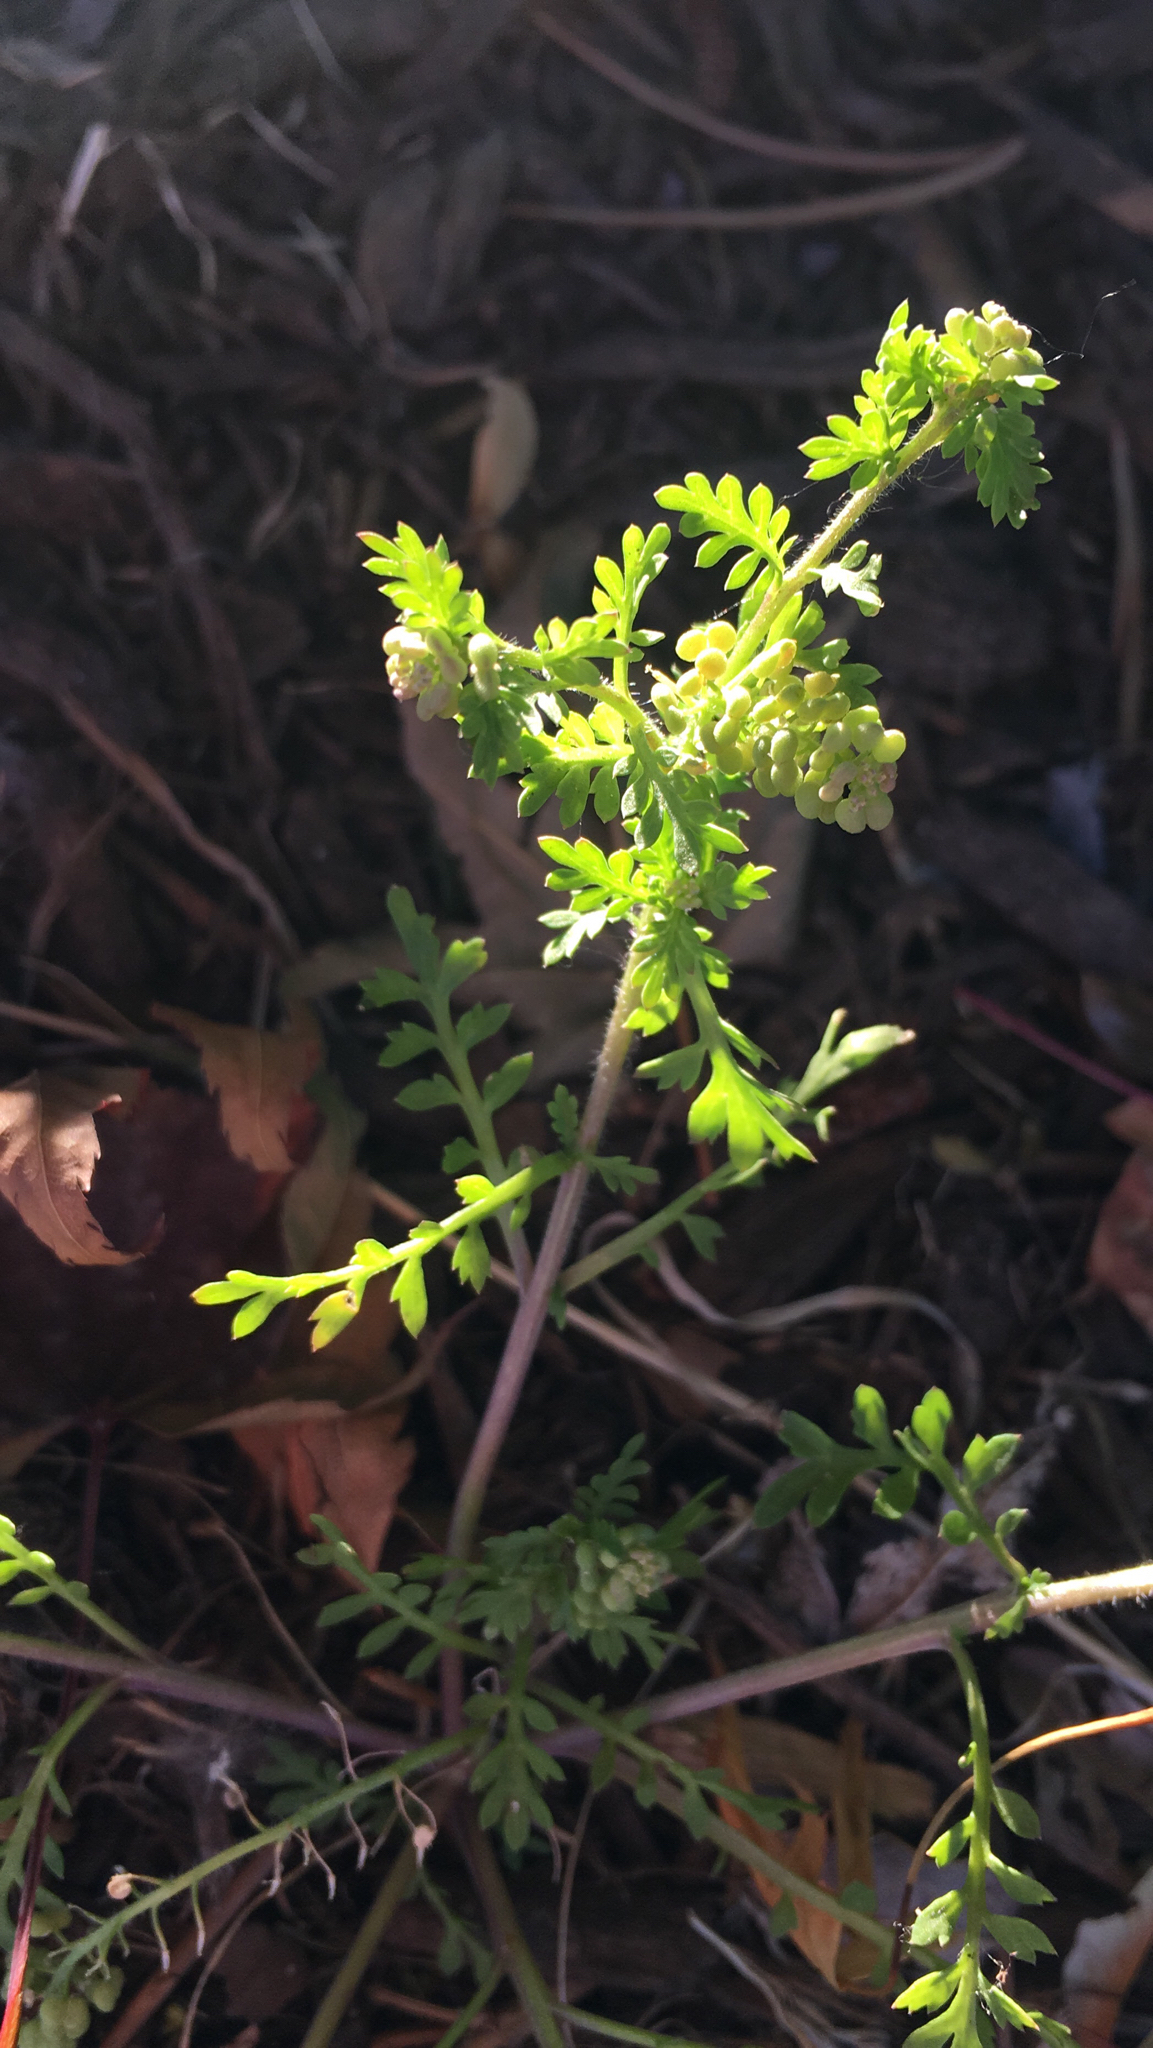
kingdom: Plantae
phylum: Tracheophyta
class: Magnoliopsida
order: Brassicales
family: Brassicaceae
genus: Lepidium
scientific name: Lepidium didymum
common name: Lesser swinecress
